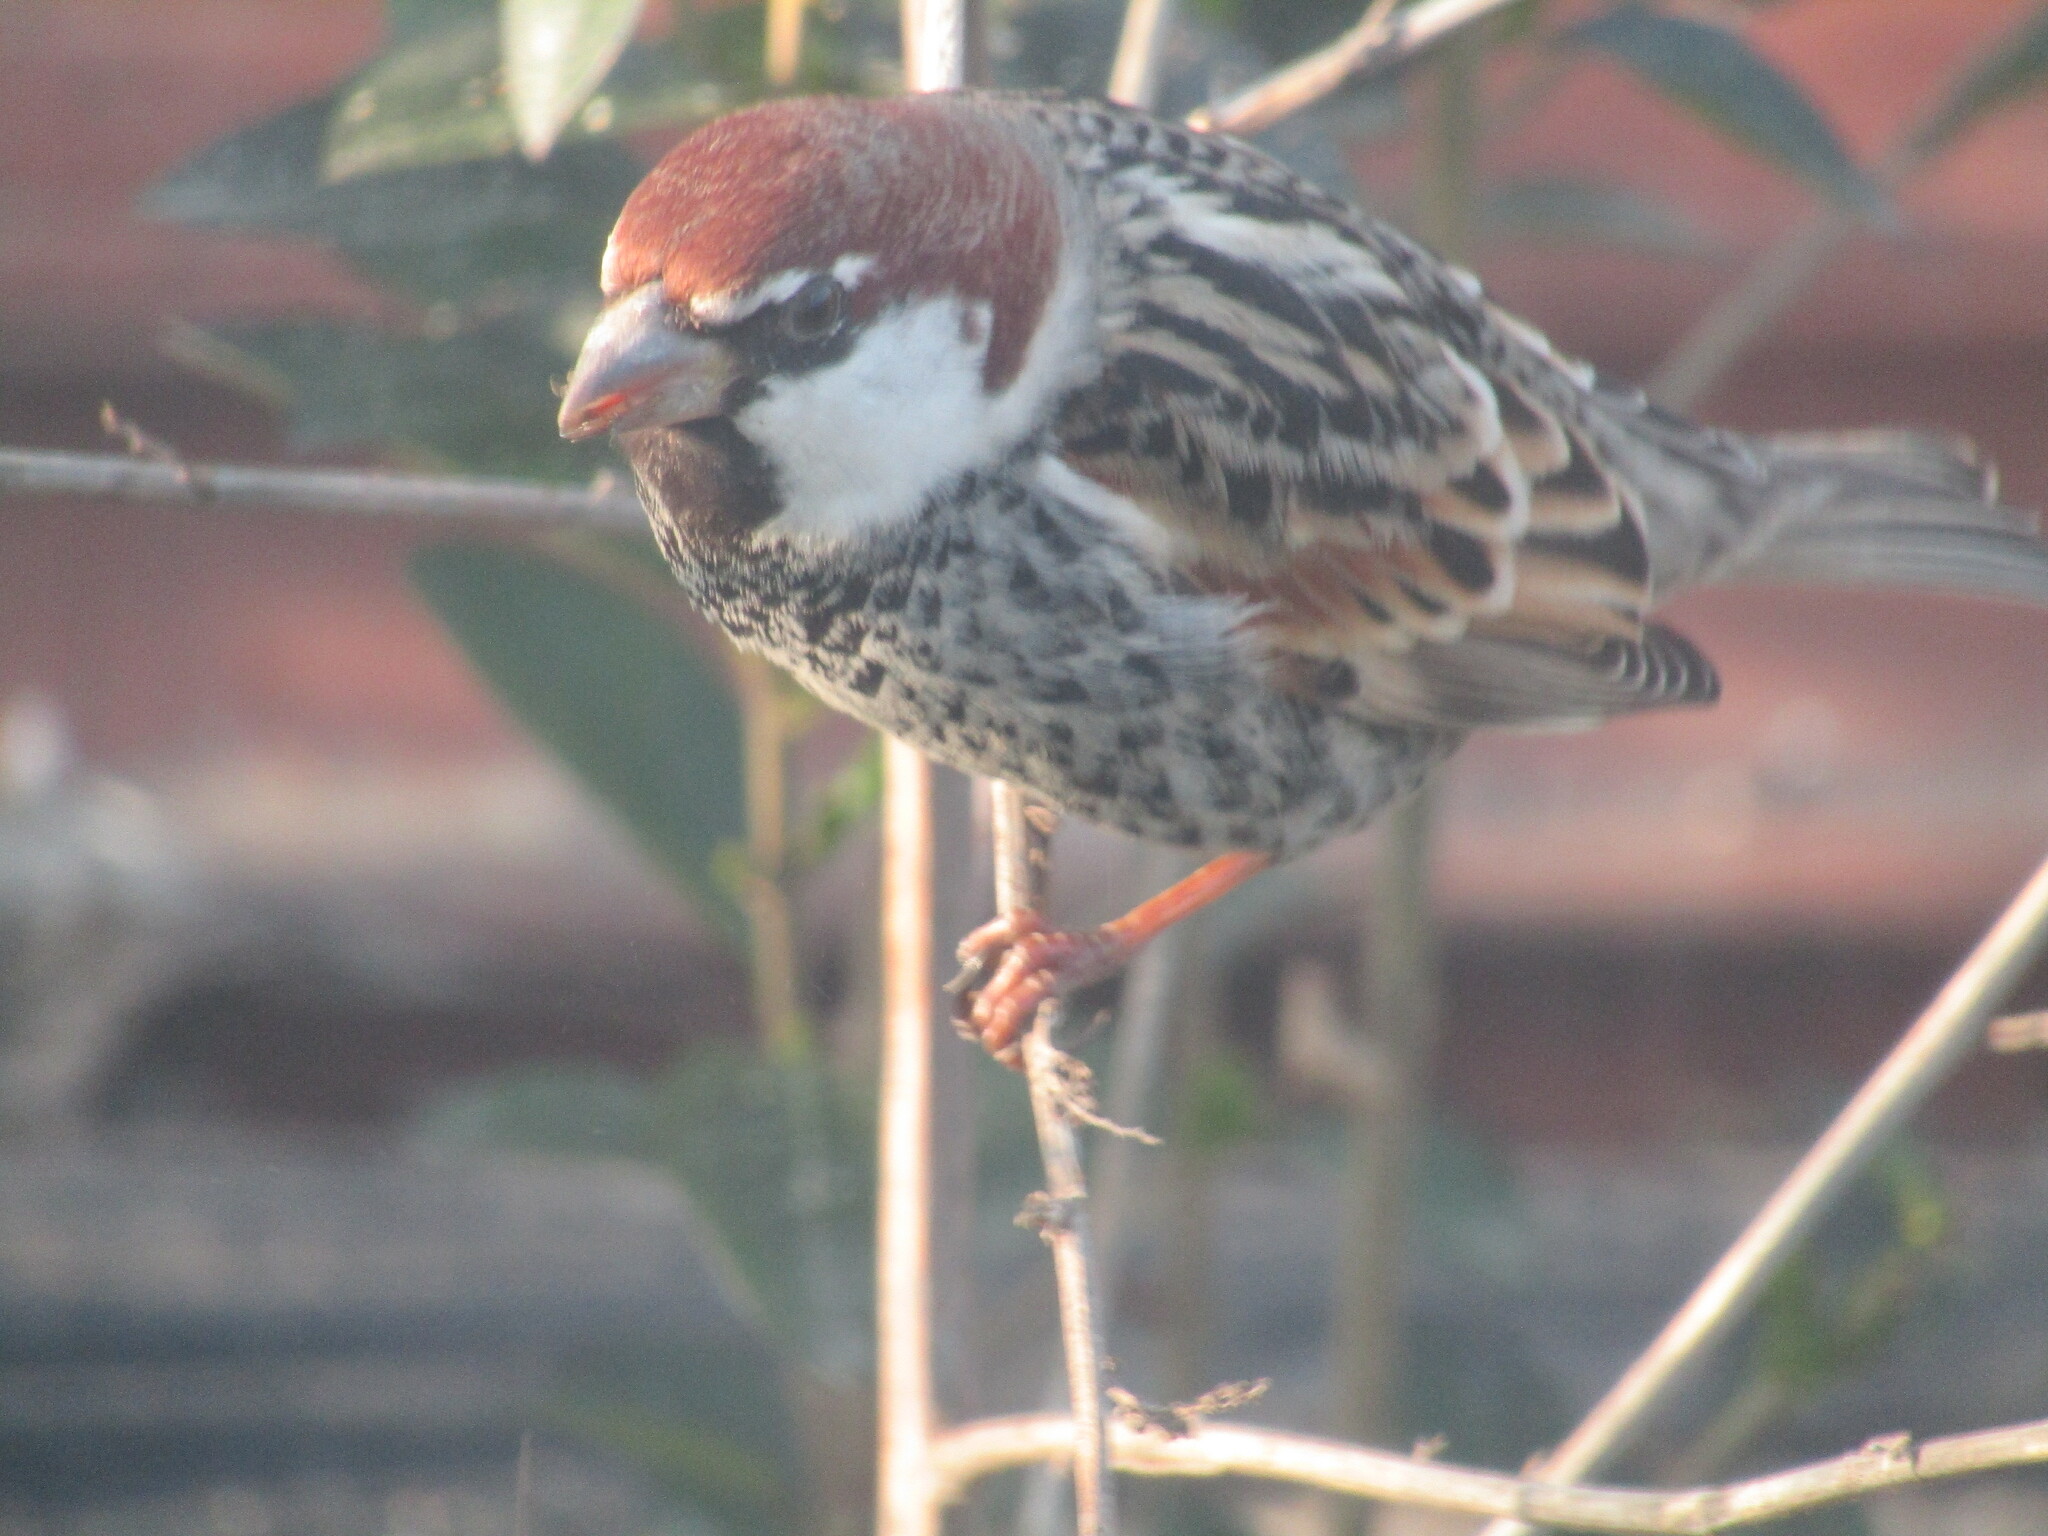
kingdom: Animalia
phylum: Chordata
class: Aves
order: Passeriformes
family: Passeridae
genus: Passer
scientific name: Passer hispaniolensis
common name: Spanish sparrow
